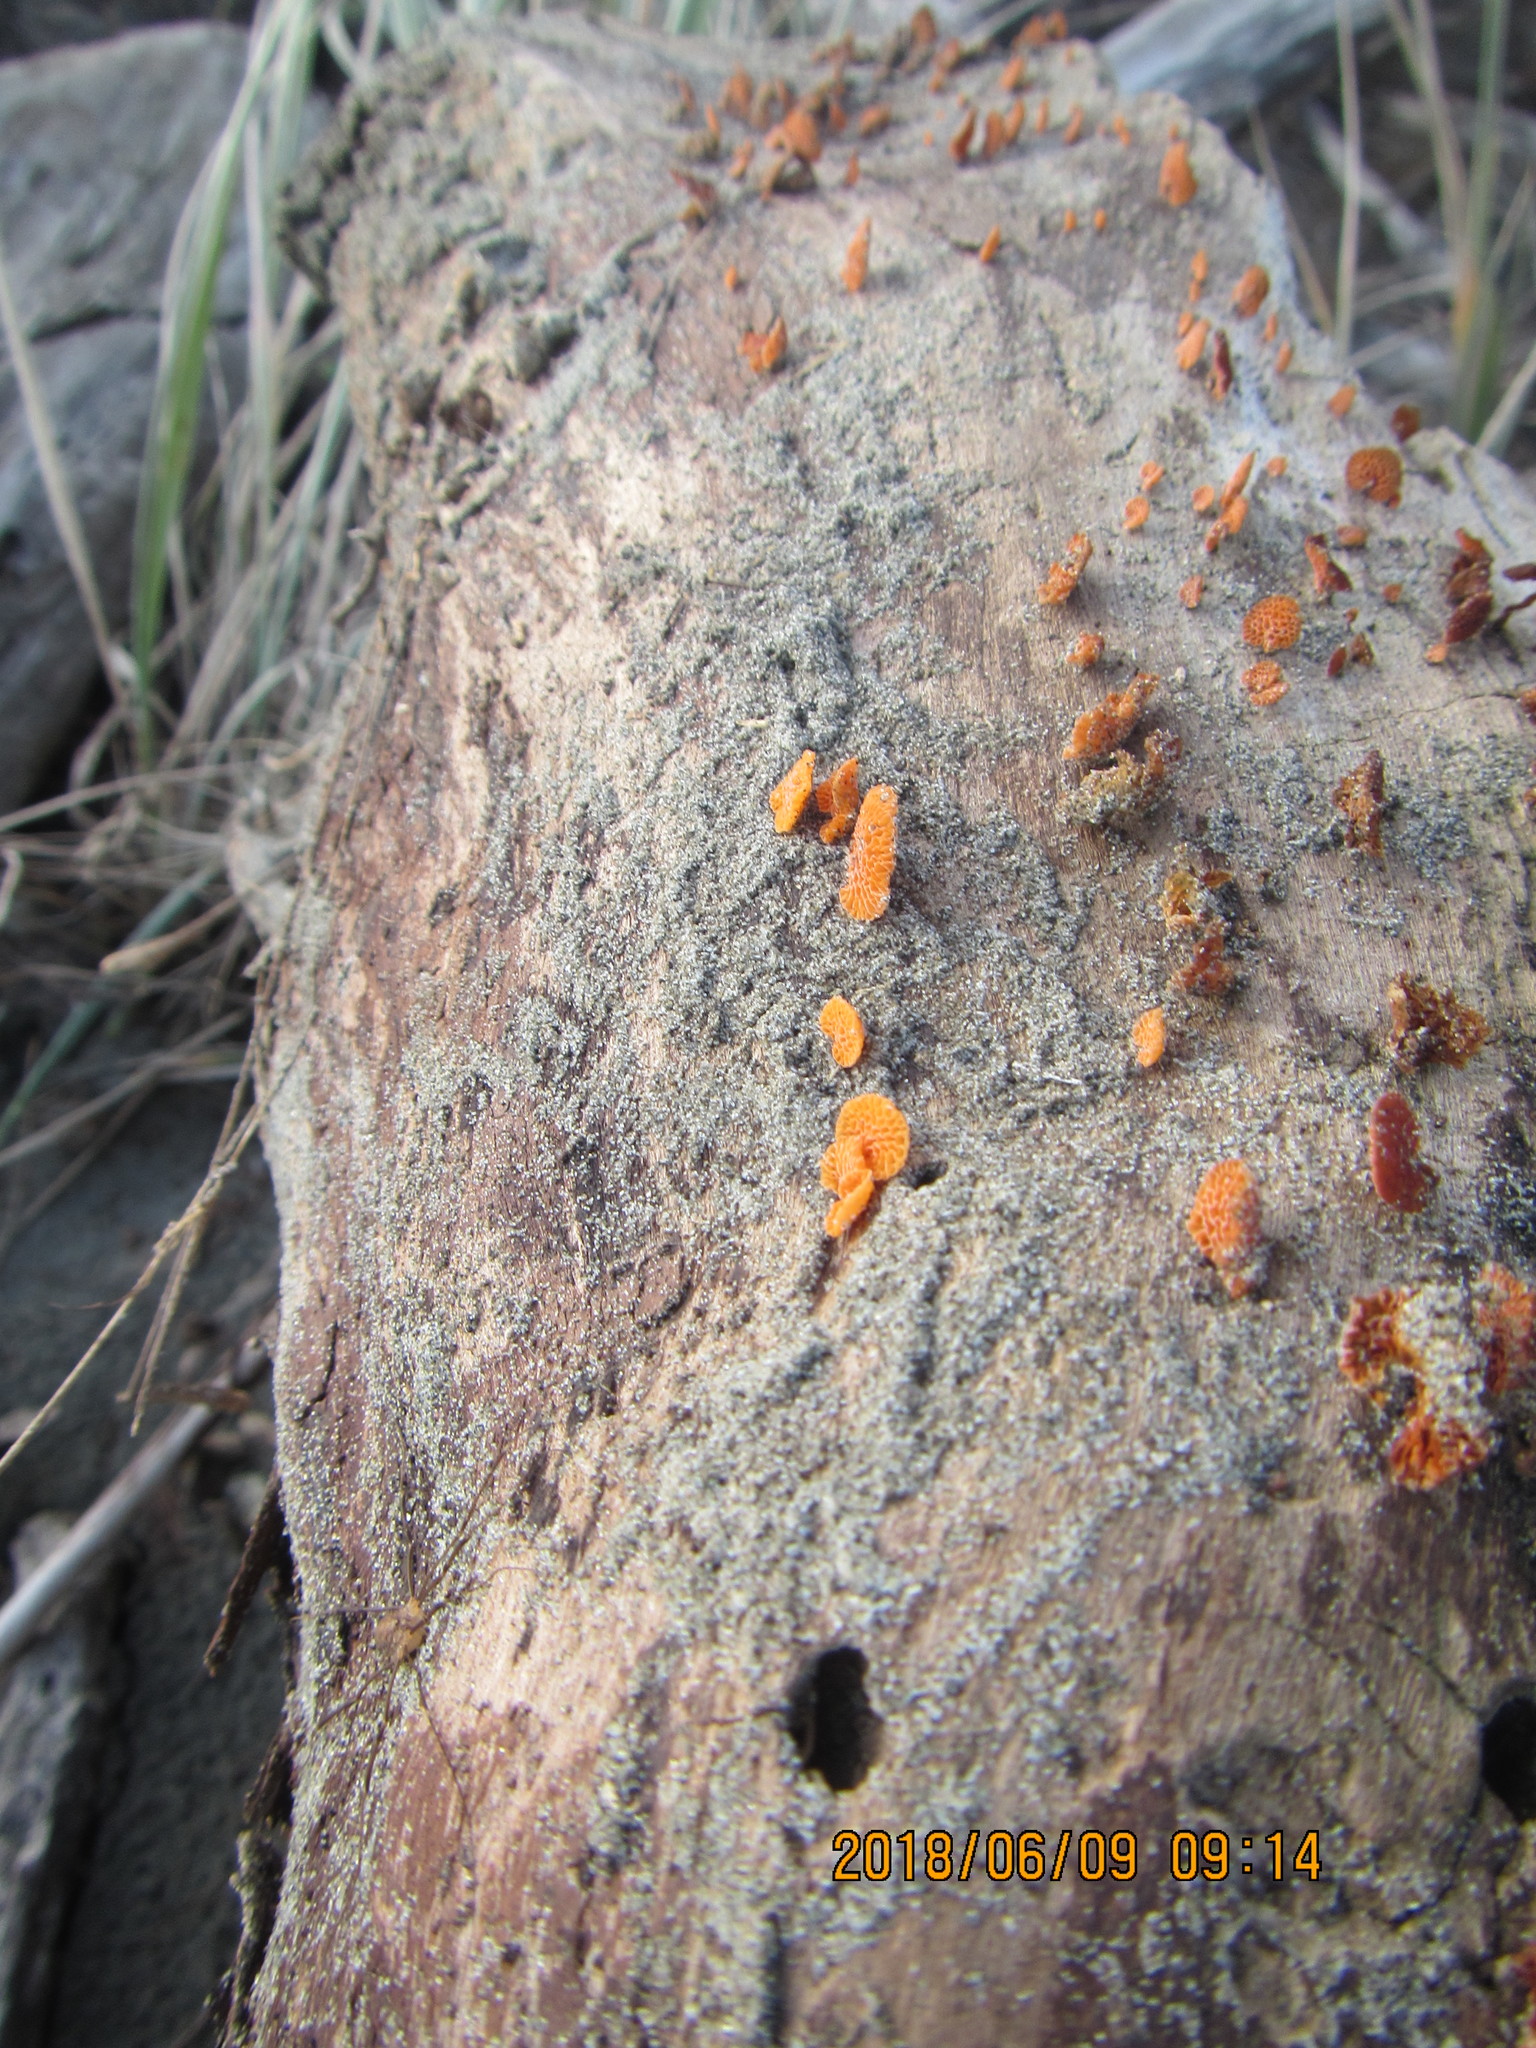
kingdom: Fungi
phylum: Basidiomycota
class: Agaricomycetes
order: Agaricales
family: Mycenaceae
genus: Favolaschia
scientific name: Favolaschia claudopus
